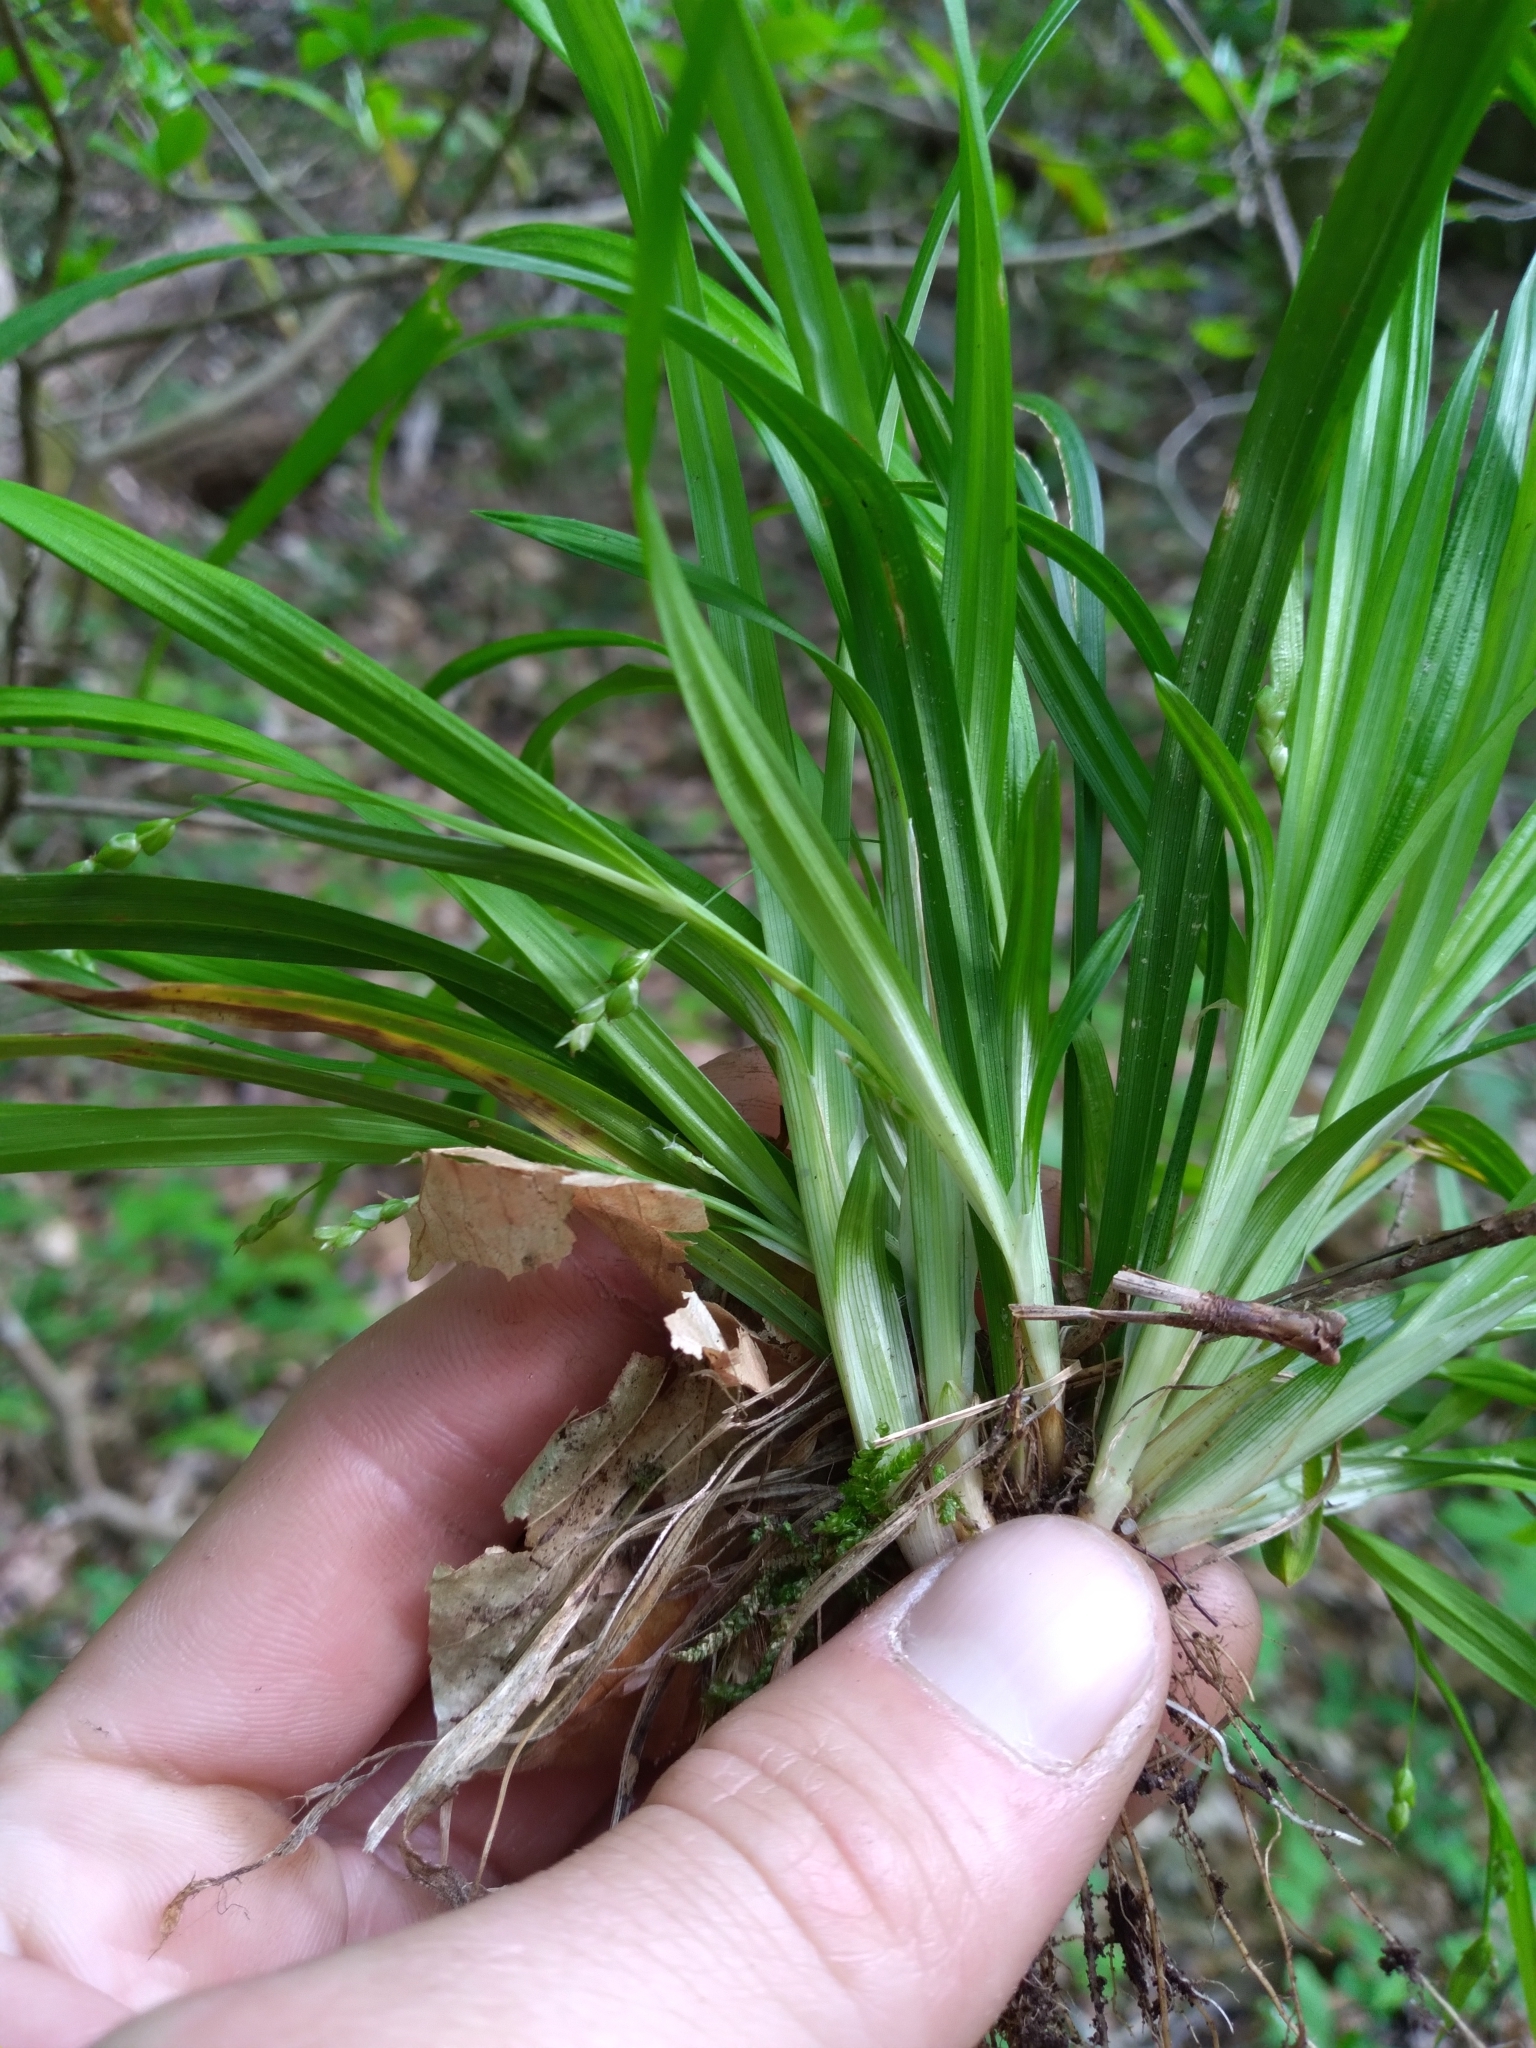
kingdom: Plantae
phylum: Tracheophyta
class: Liliopsida
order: Poales
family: Cyperaceae
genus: Carex
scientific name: Carex cumberlandensis
